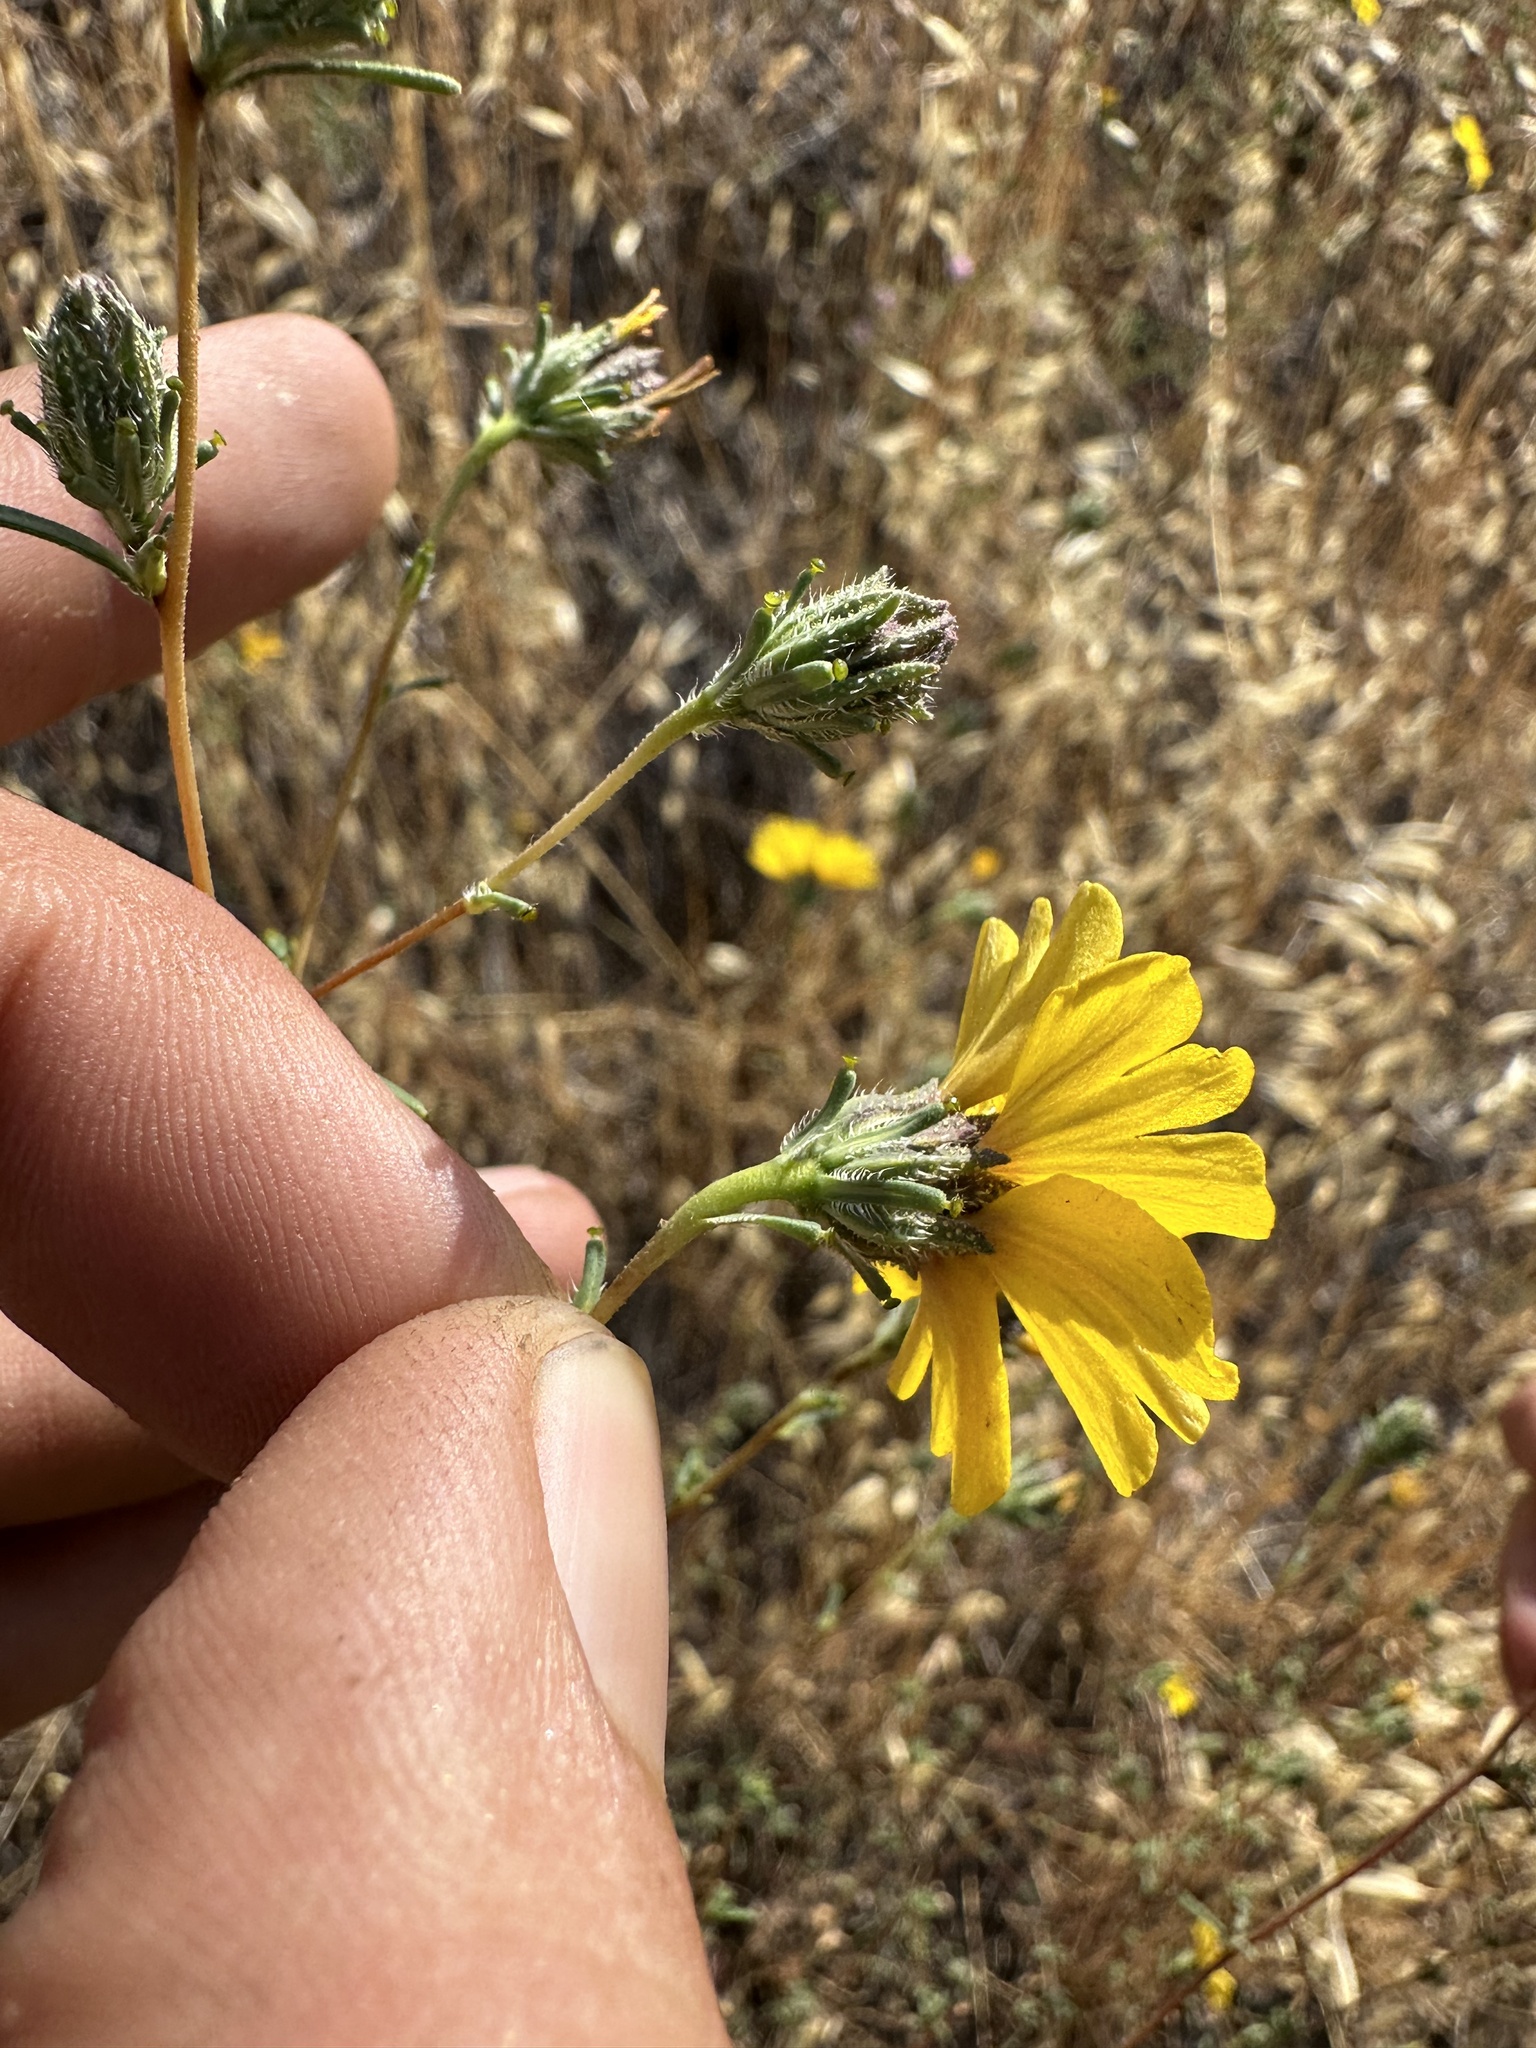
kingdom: Plantae
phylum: Tracheophyta
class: Magnoliopsida
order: Asterales
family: Asteraceae
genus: Calycadenia
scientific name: Calycadenia truncata
